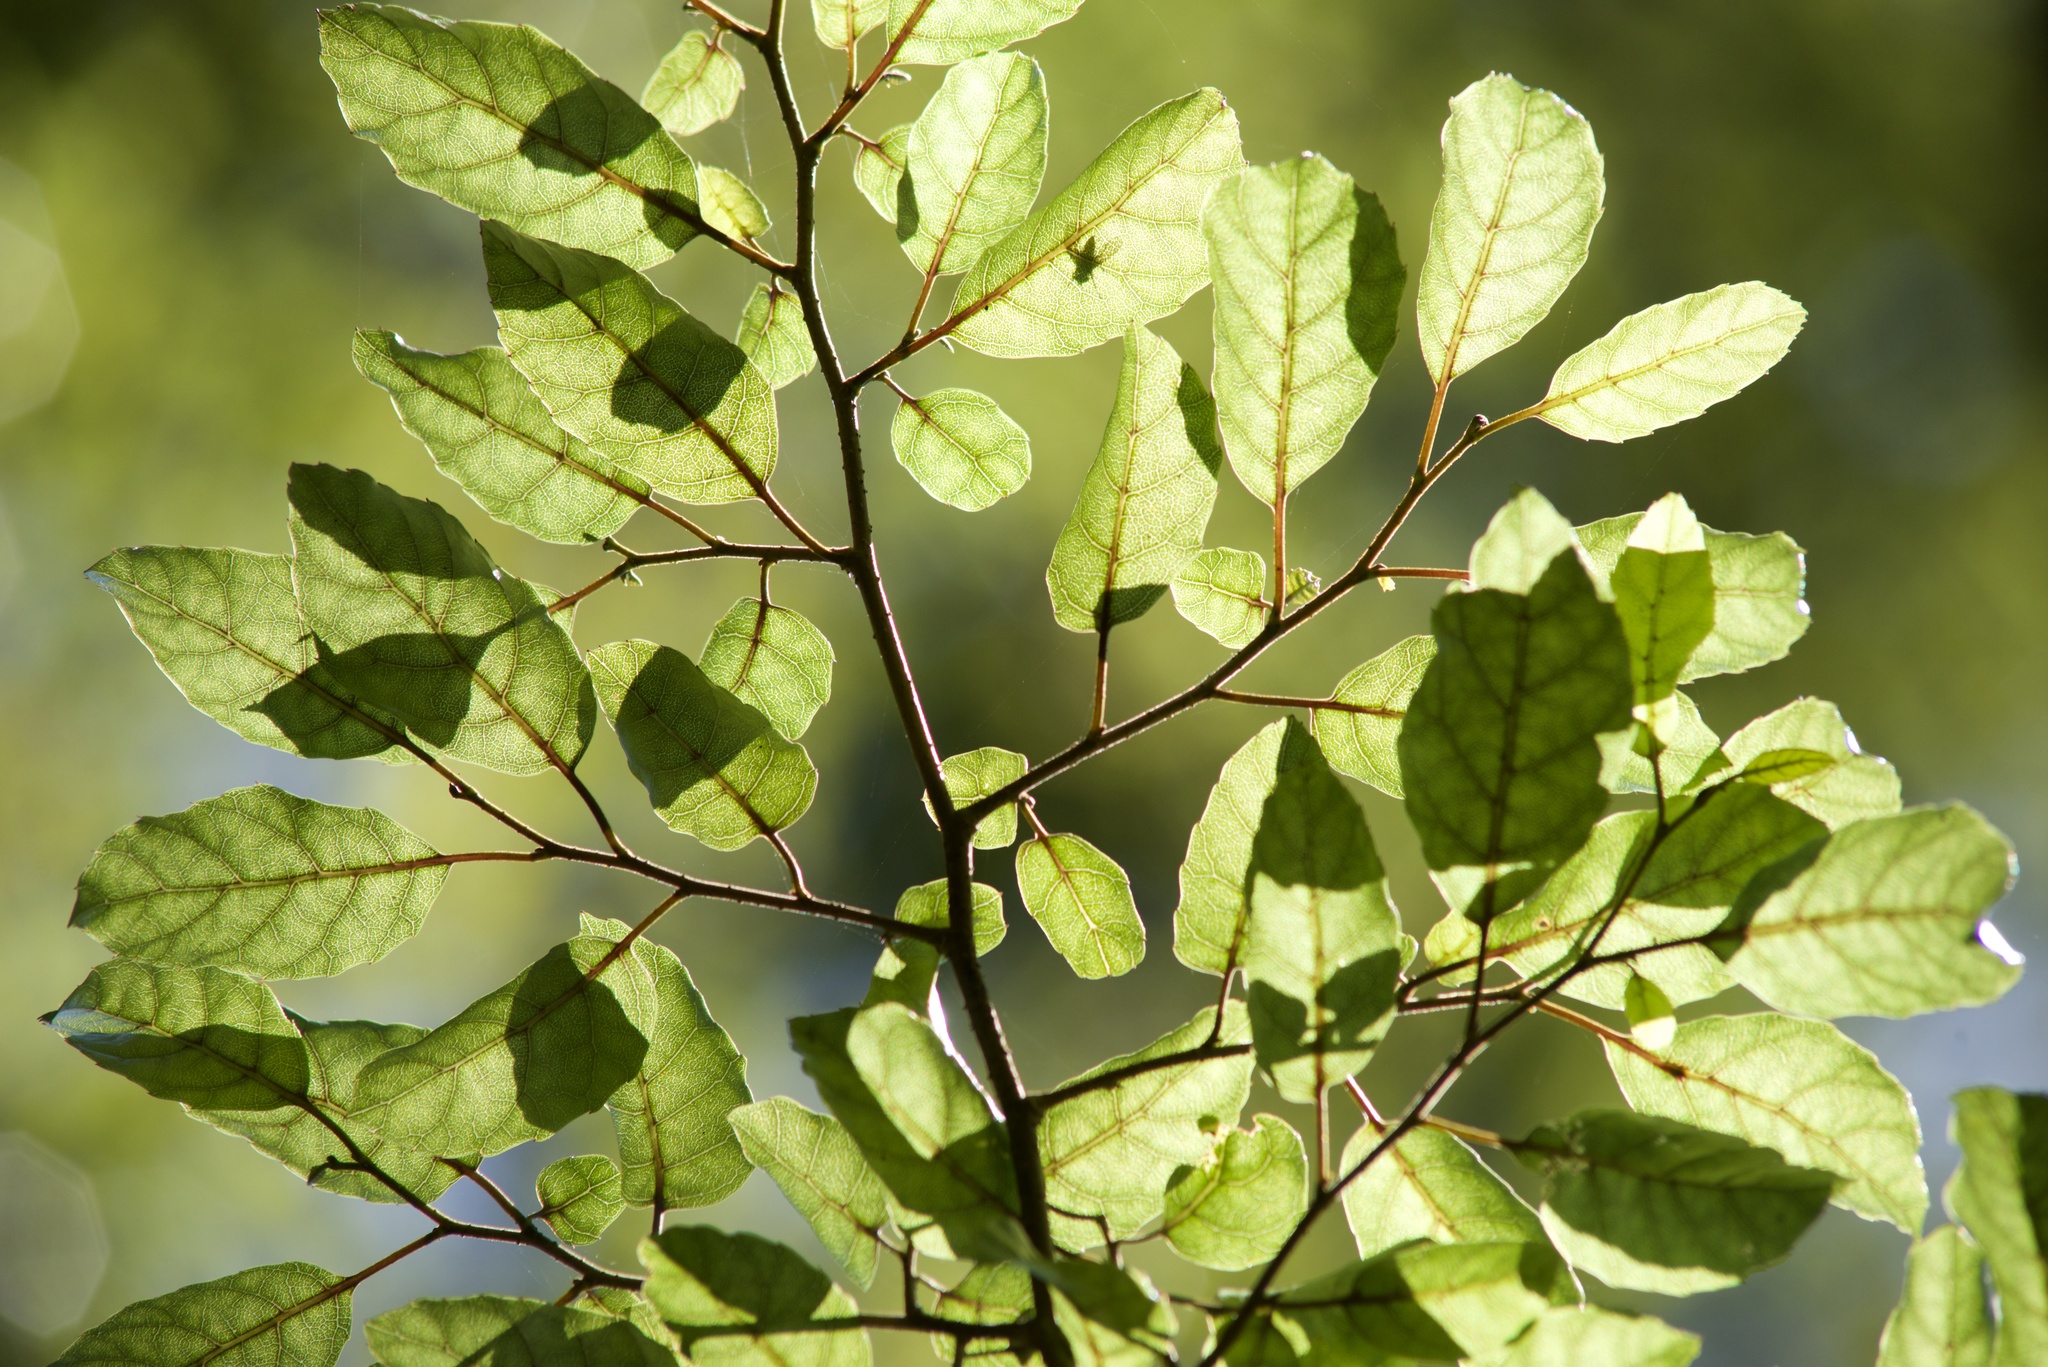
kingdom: Plantae
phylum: Tracheophyta
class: Magnoliopsida
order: Asterales
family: Rousseaceae
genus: Carpodetus
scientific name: Carpodetus serratus
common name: White mapau
